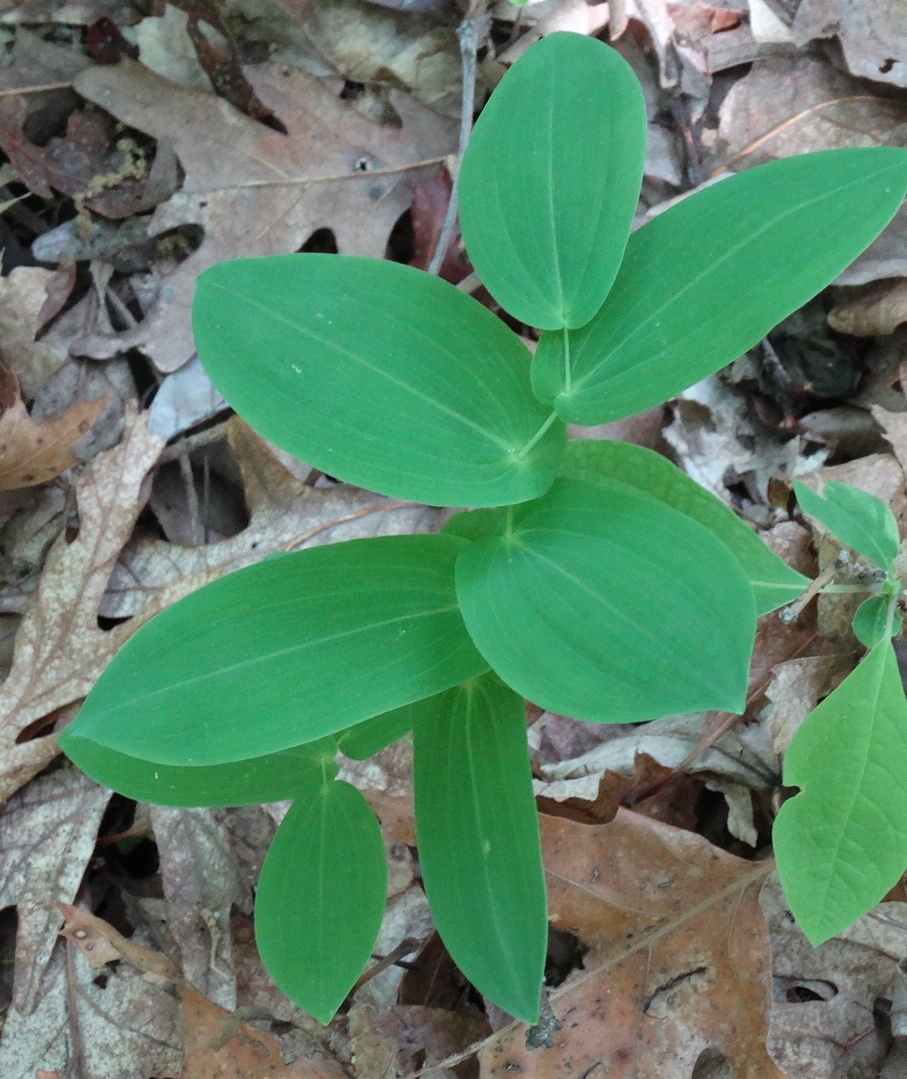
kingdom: Plantae
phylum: Tracheophyta
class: Liliopsida
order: Liliales
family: Colchicaceae
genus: Uvularia
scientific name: Uvularia grandiflora
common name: Bellwort
